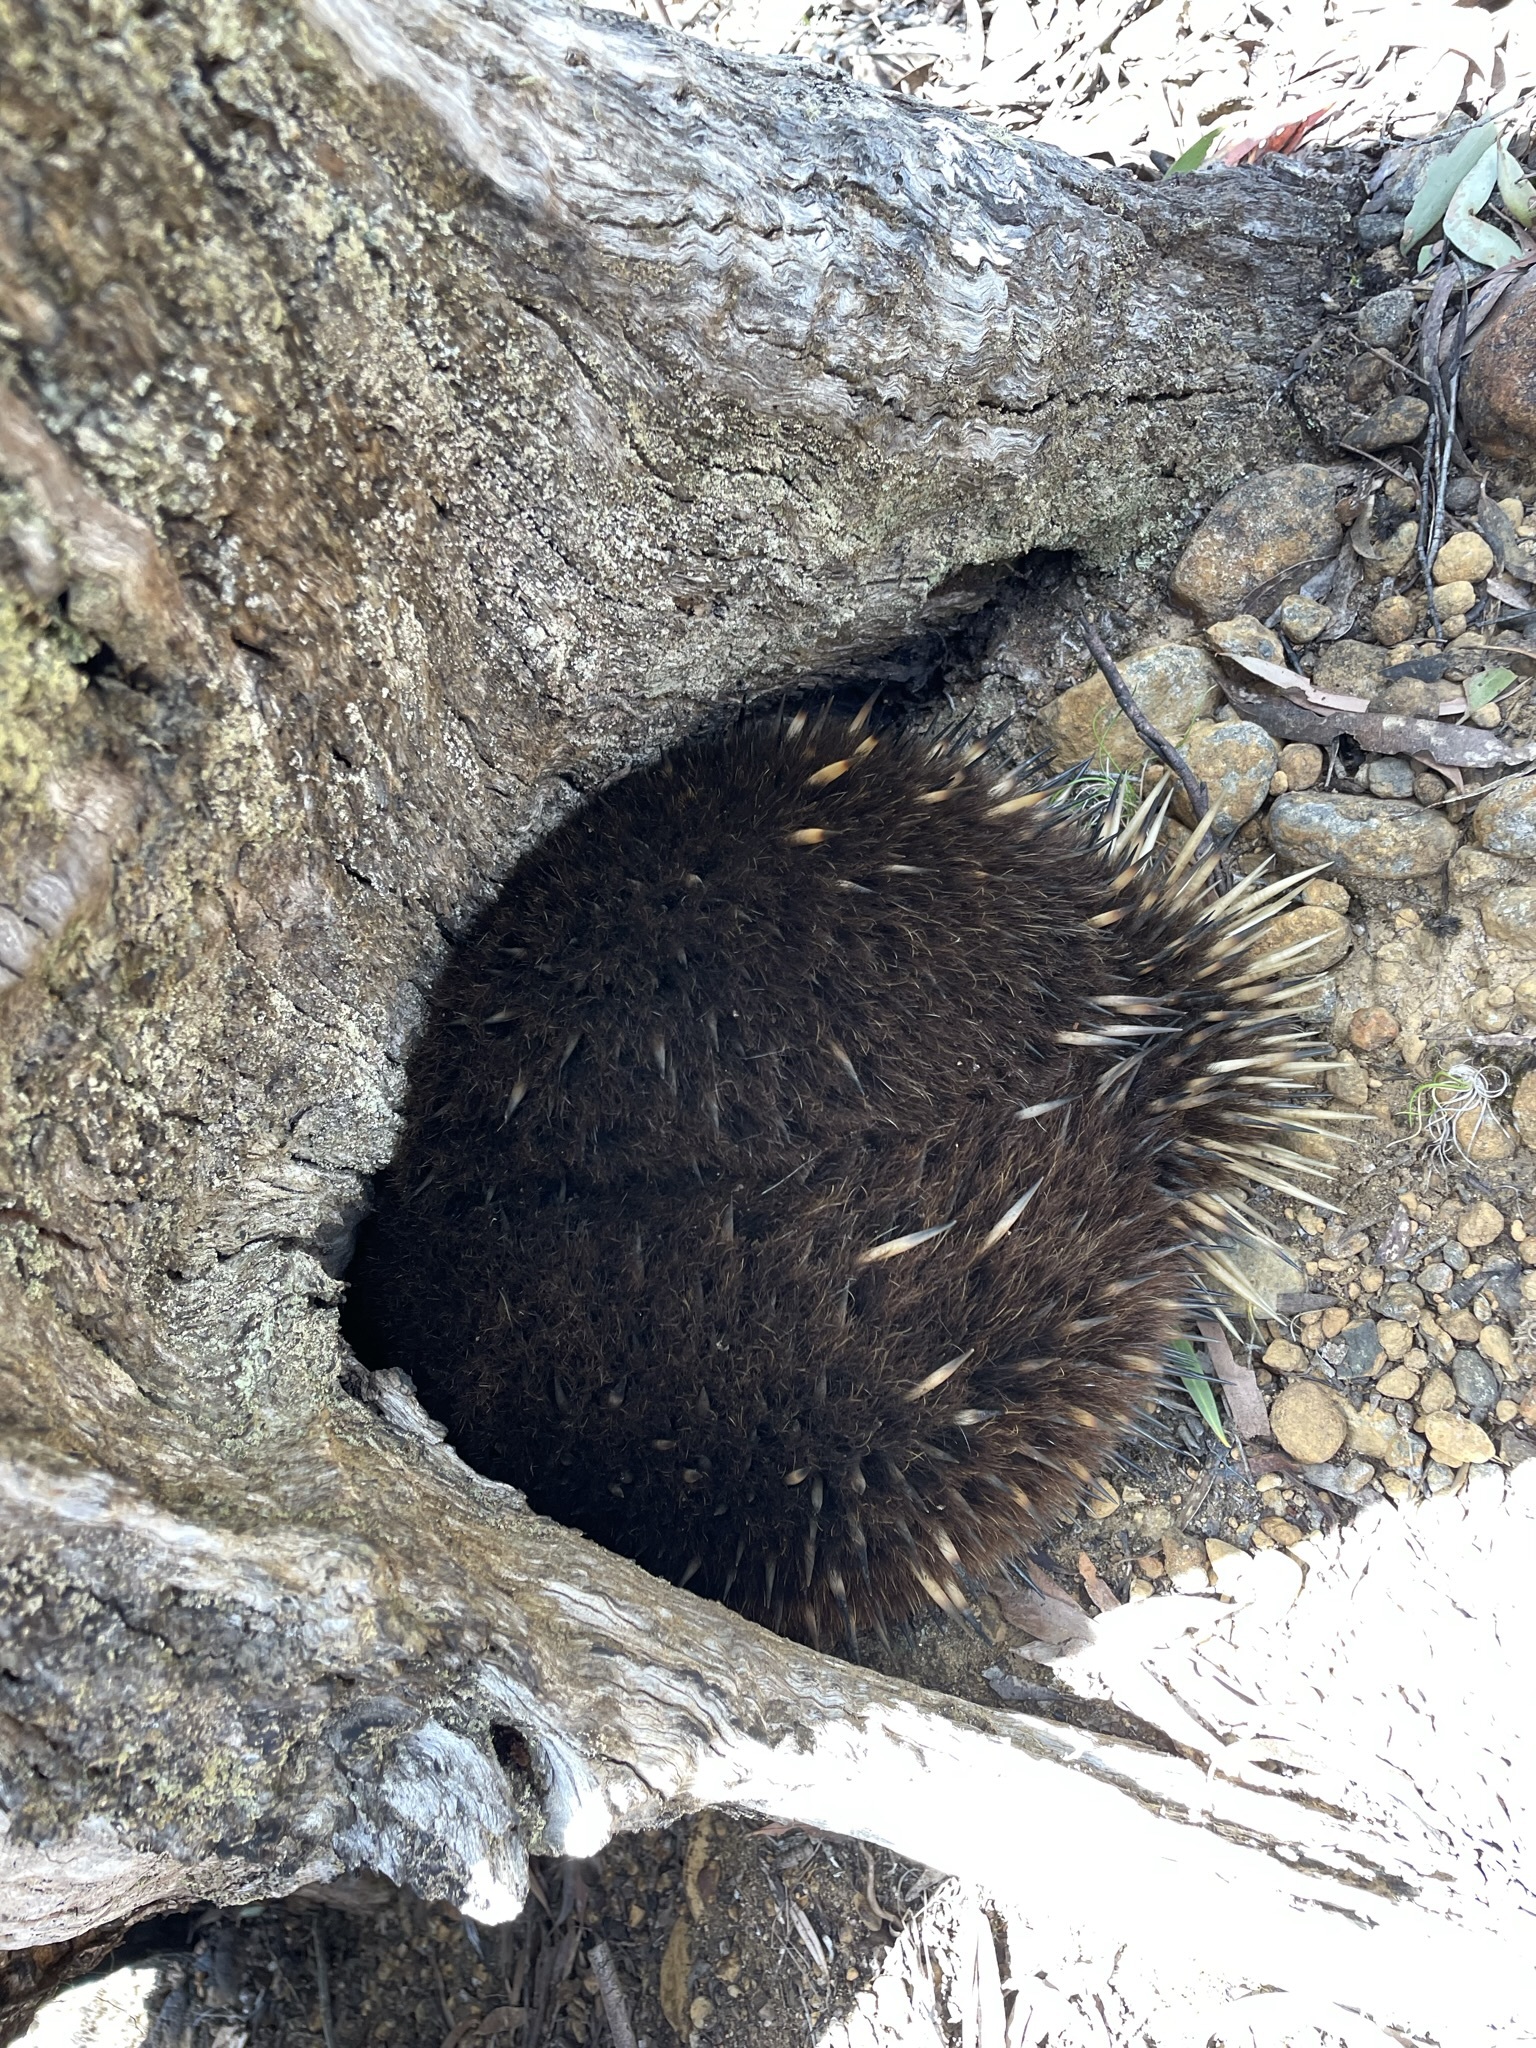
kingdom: Animalia
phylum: Chordata
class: Mammalia
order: Monotremata
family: Tachyglossidae
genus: Tachyglossus
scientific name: Tachyglossus aculeatus
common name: Short-beaked echidna
